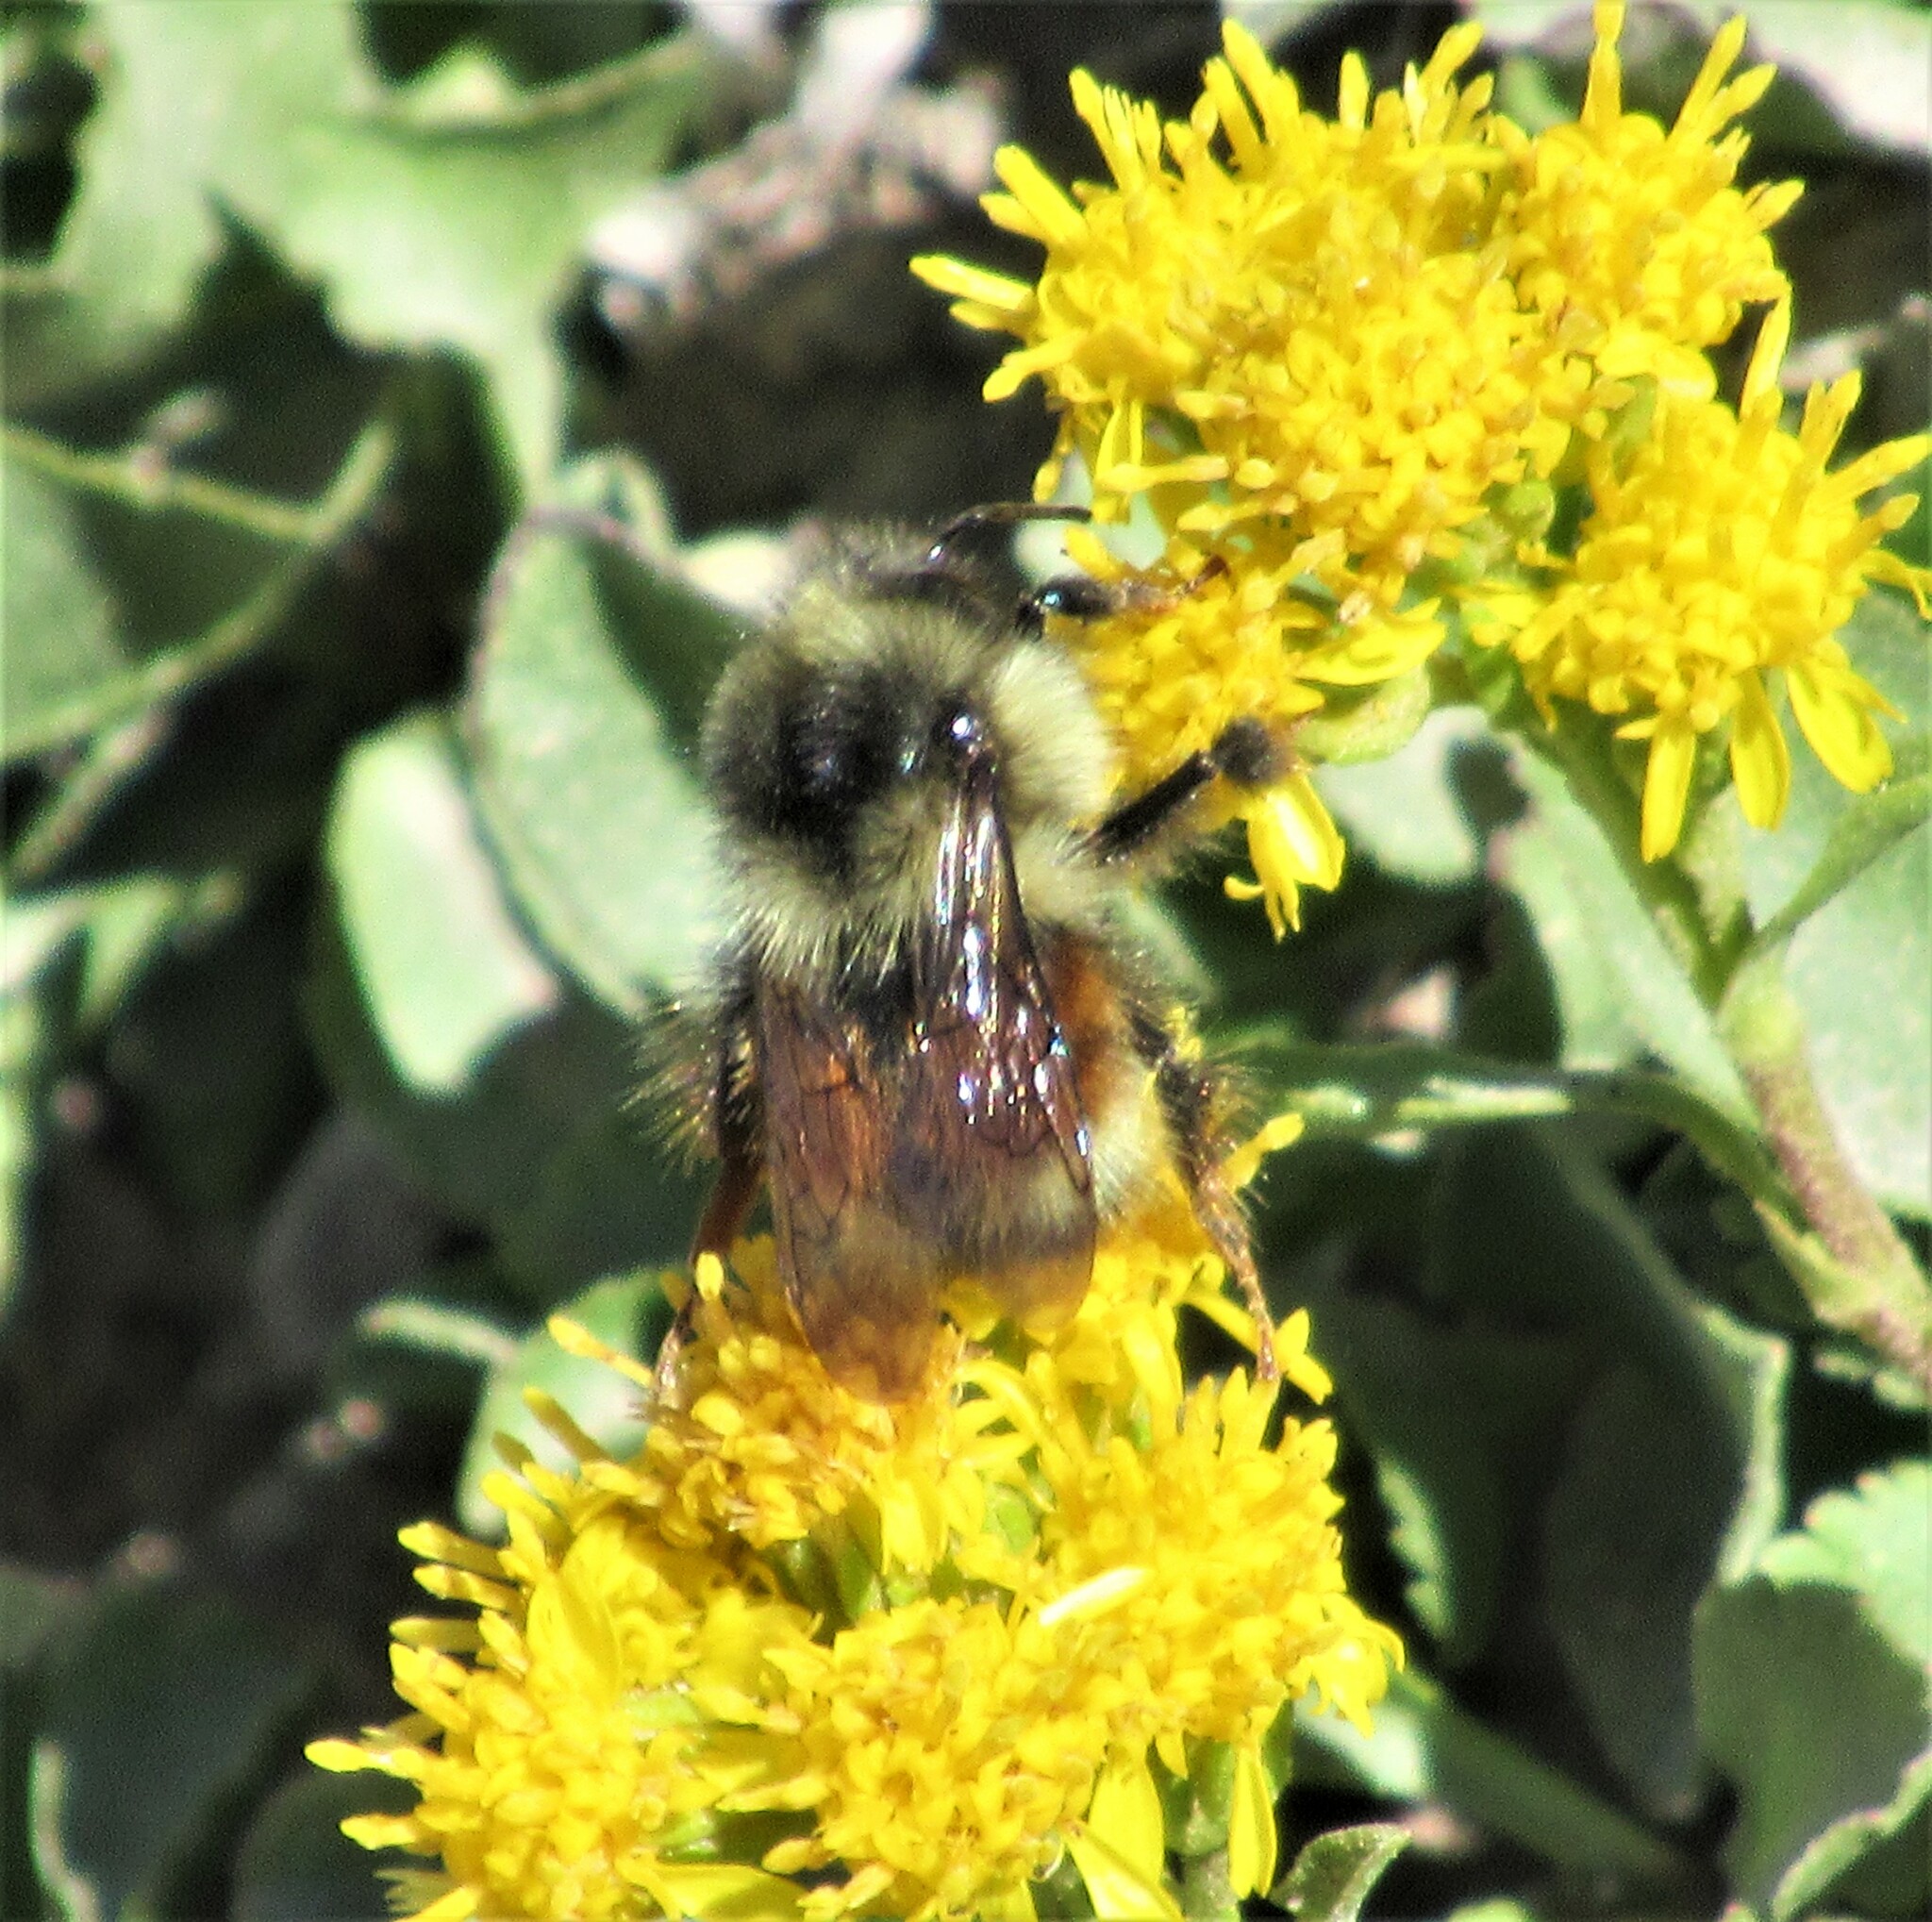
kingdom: Animalia
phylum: Arthropoda
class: Insecta
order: Hymenoptera
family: Apidae
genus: Bombus
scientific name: Bombus melanopygus
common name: Black tail bumble bee
